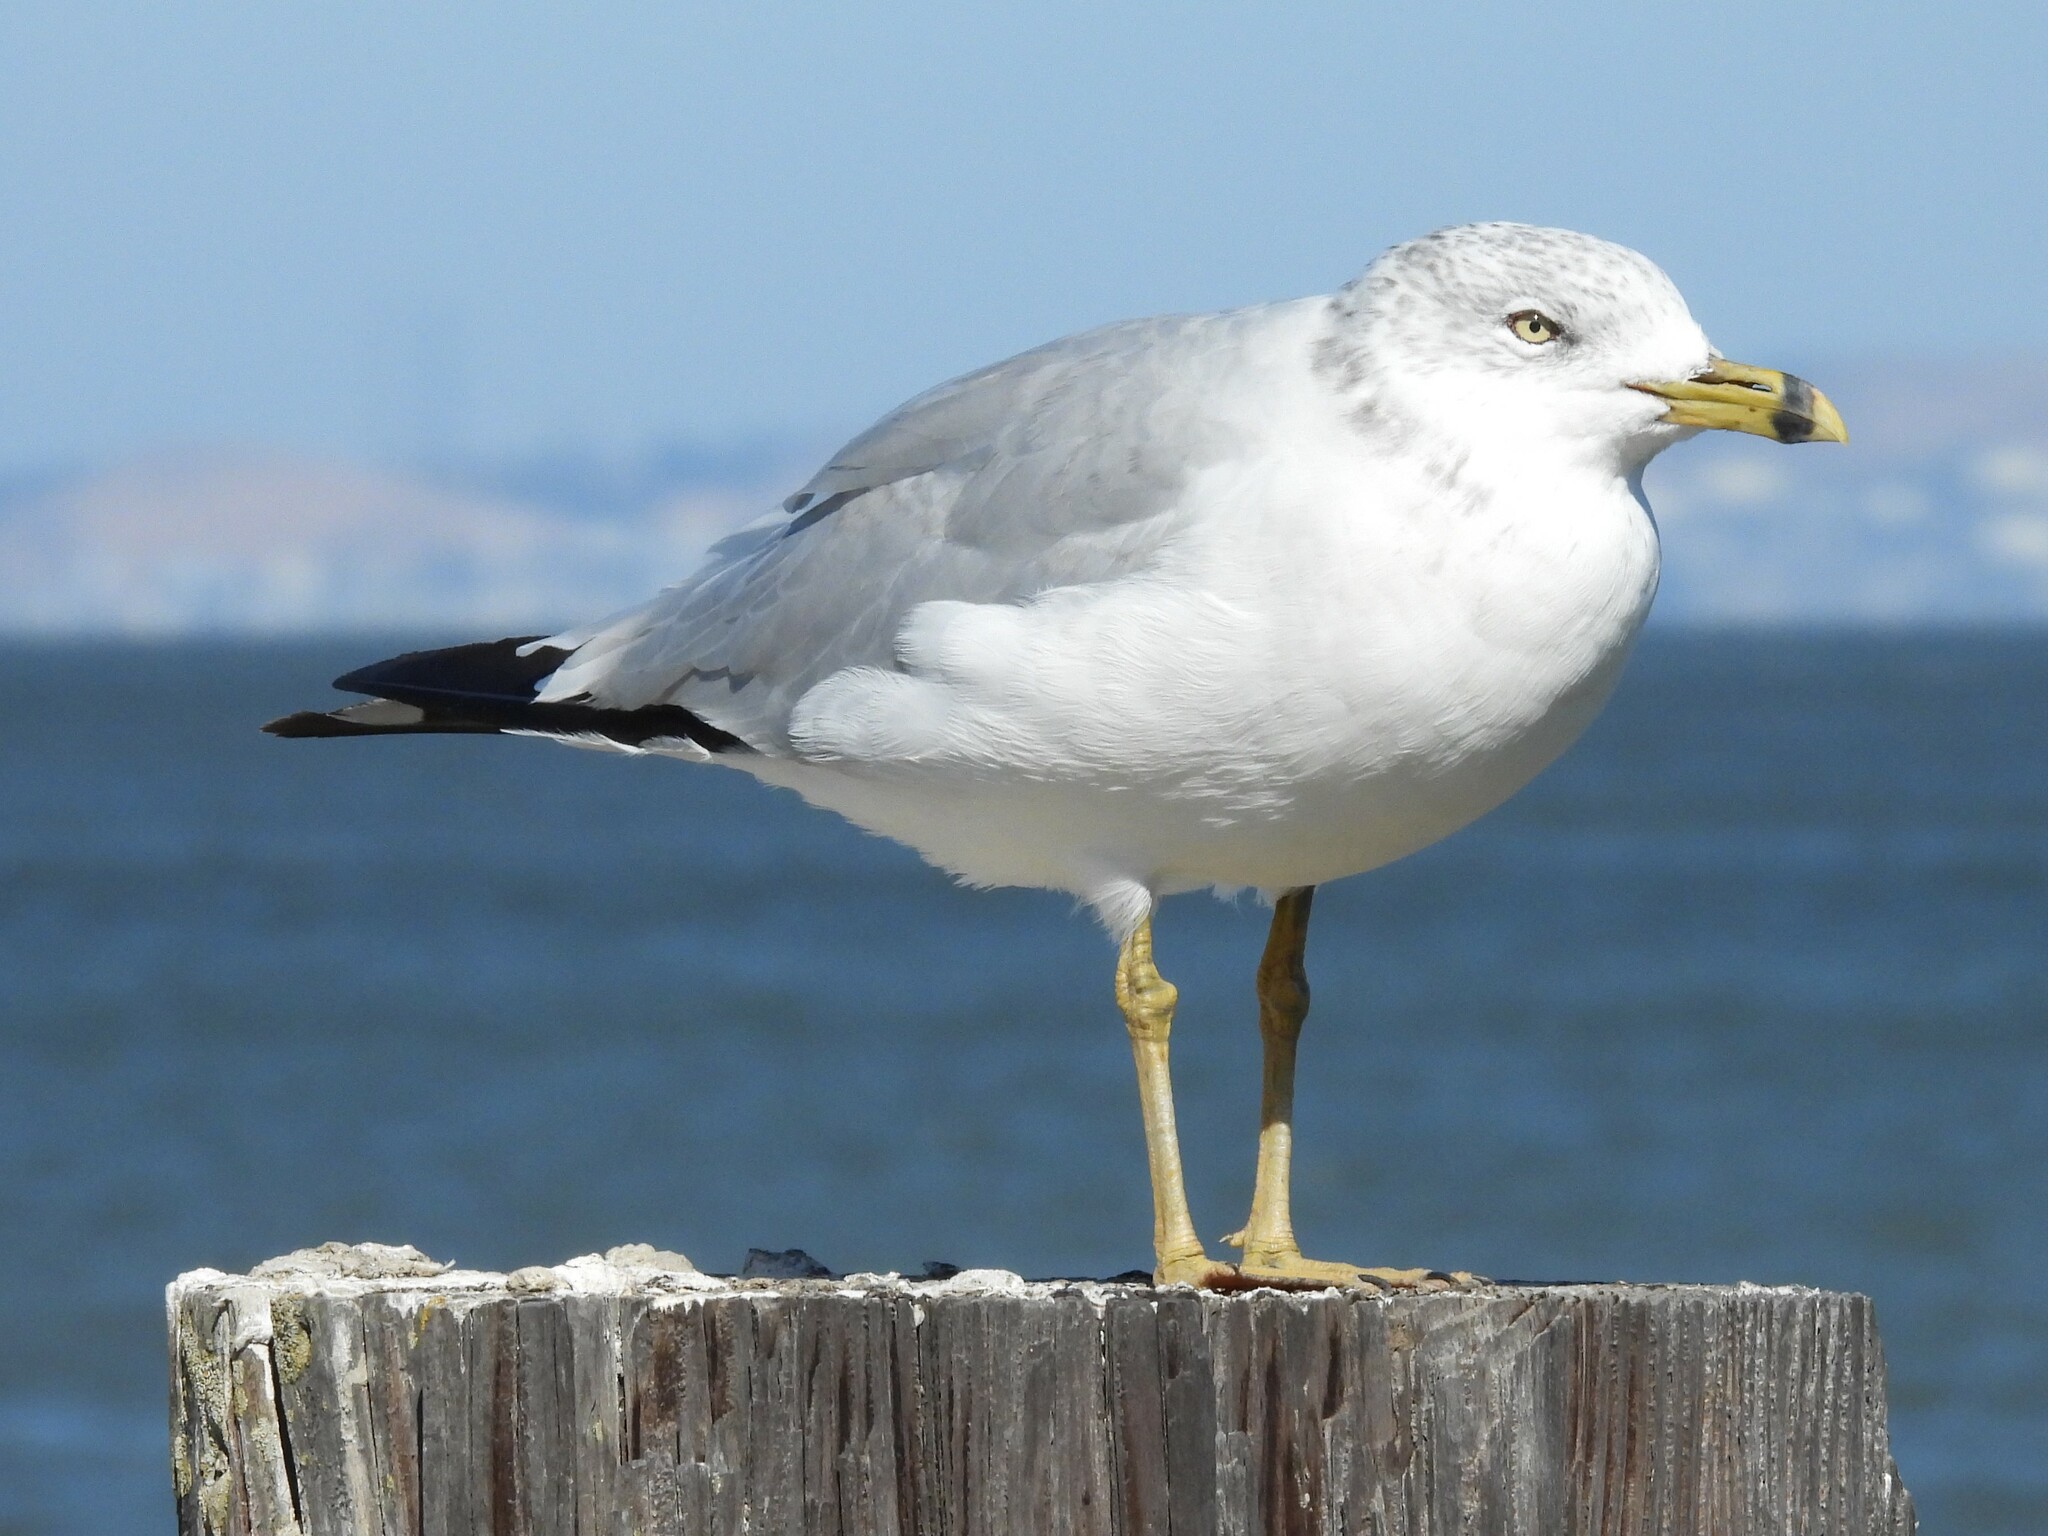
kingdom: Animalia
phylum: Chordata
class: Aves
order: Charadriiformes
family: Laridae
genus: Larus
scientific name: Larus delawarensis
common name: Ring-billed gull
